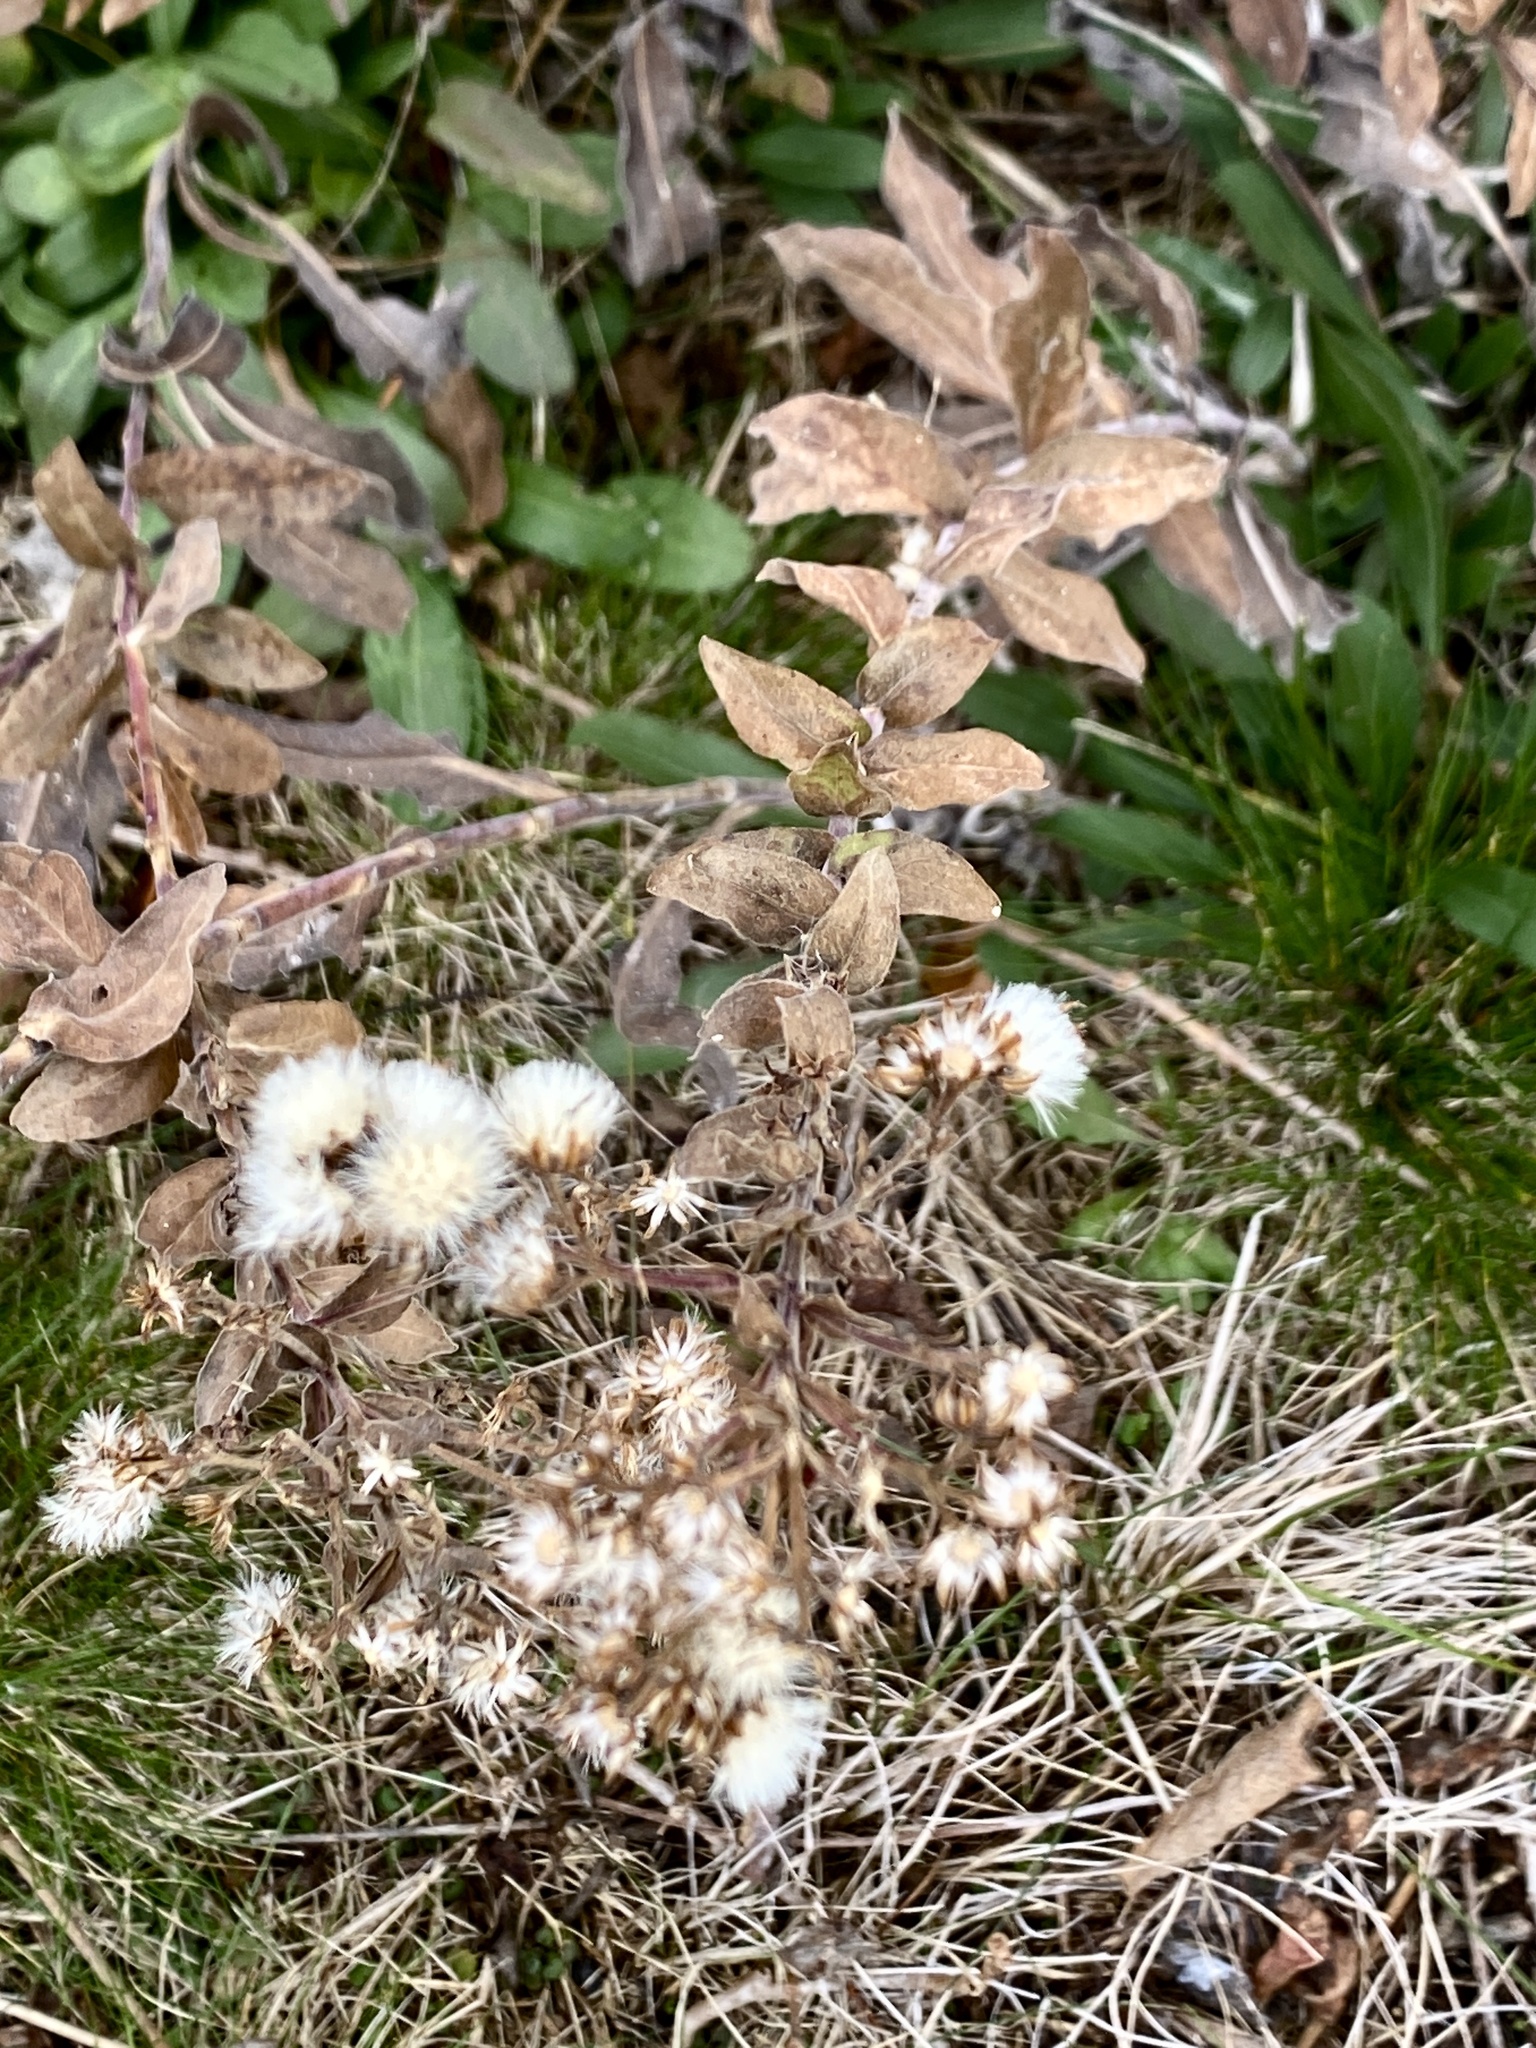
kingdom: Plantae
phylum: Tracheophyta
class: Magnoliopsida
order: Asterales
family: Asteraceae
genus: Solidago
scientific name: Solidago rigida
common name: Rigid goldenrod
